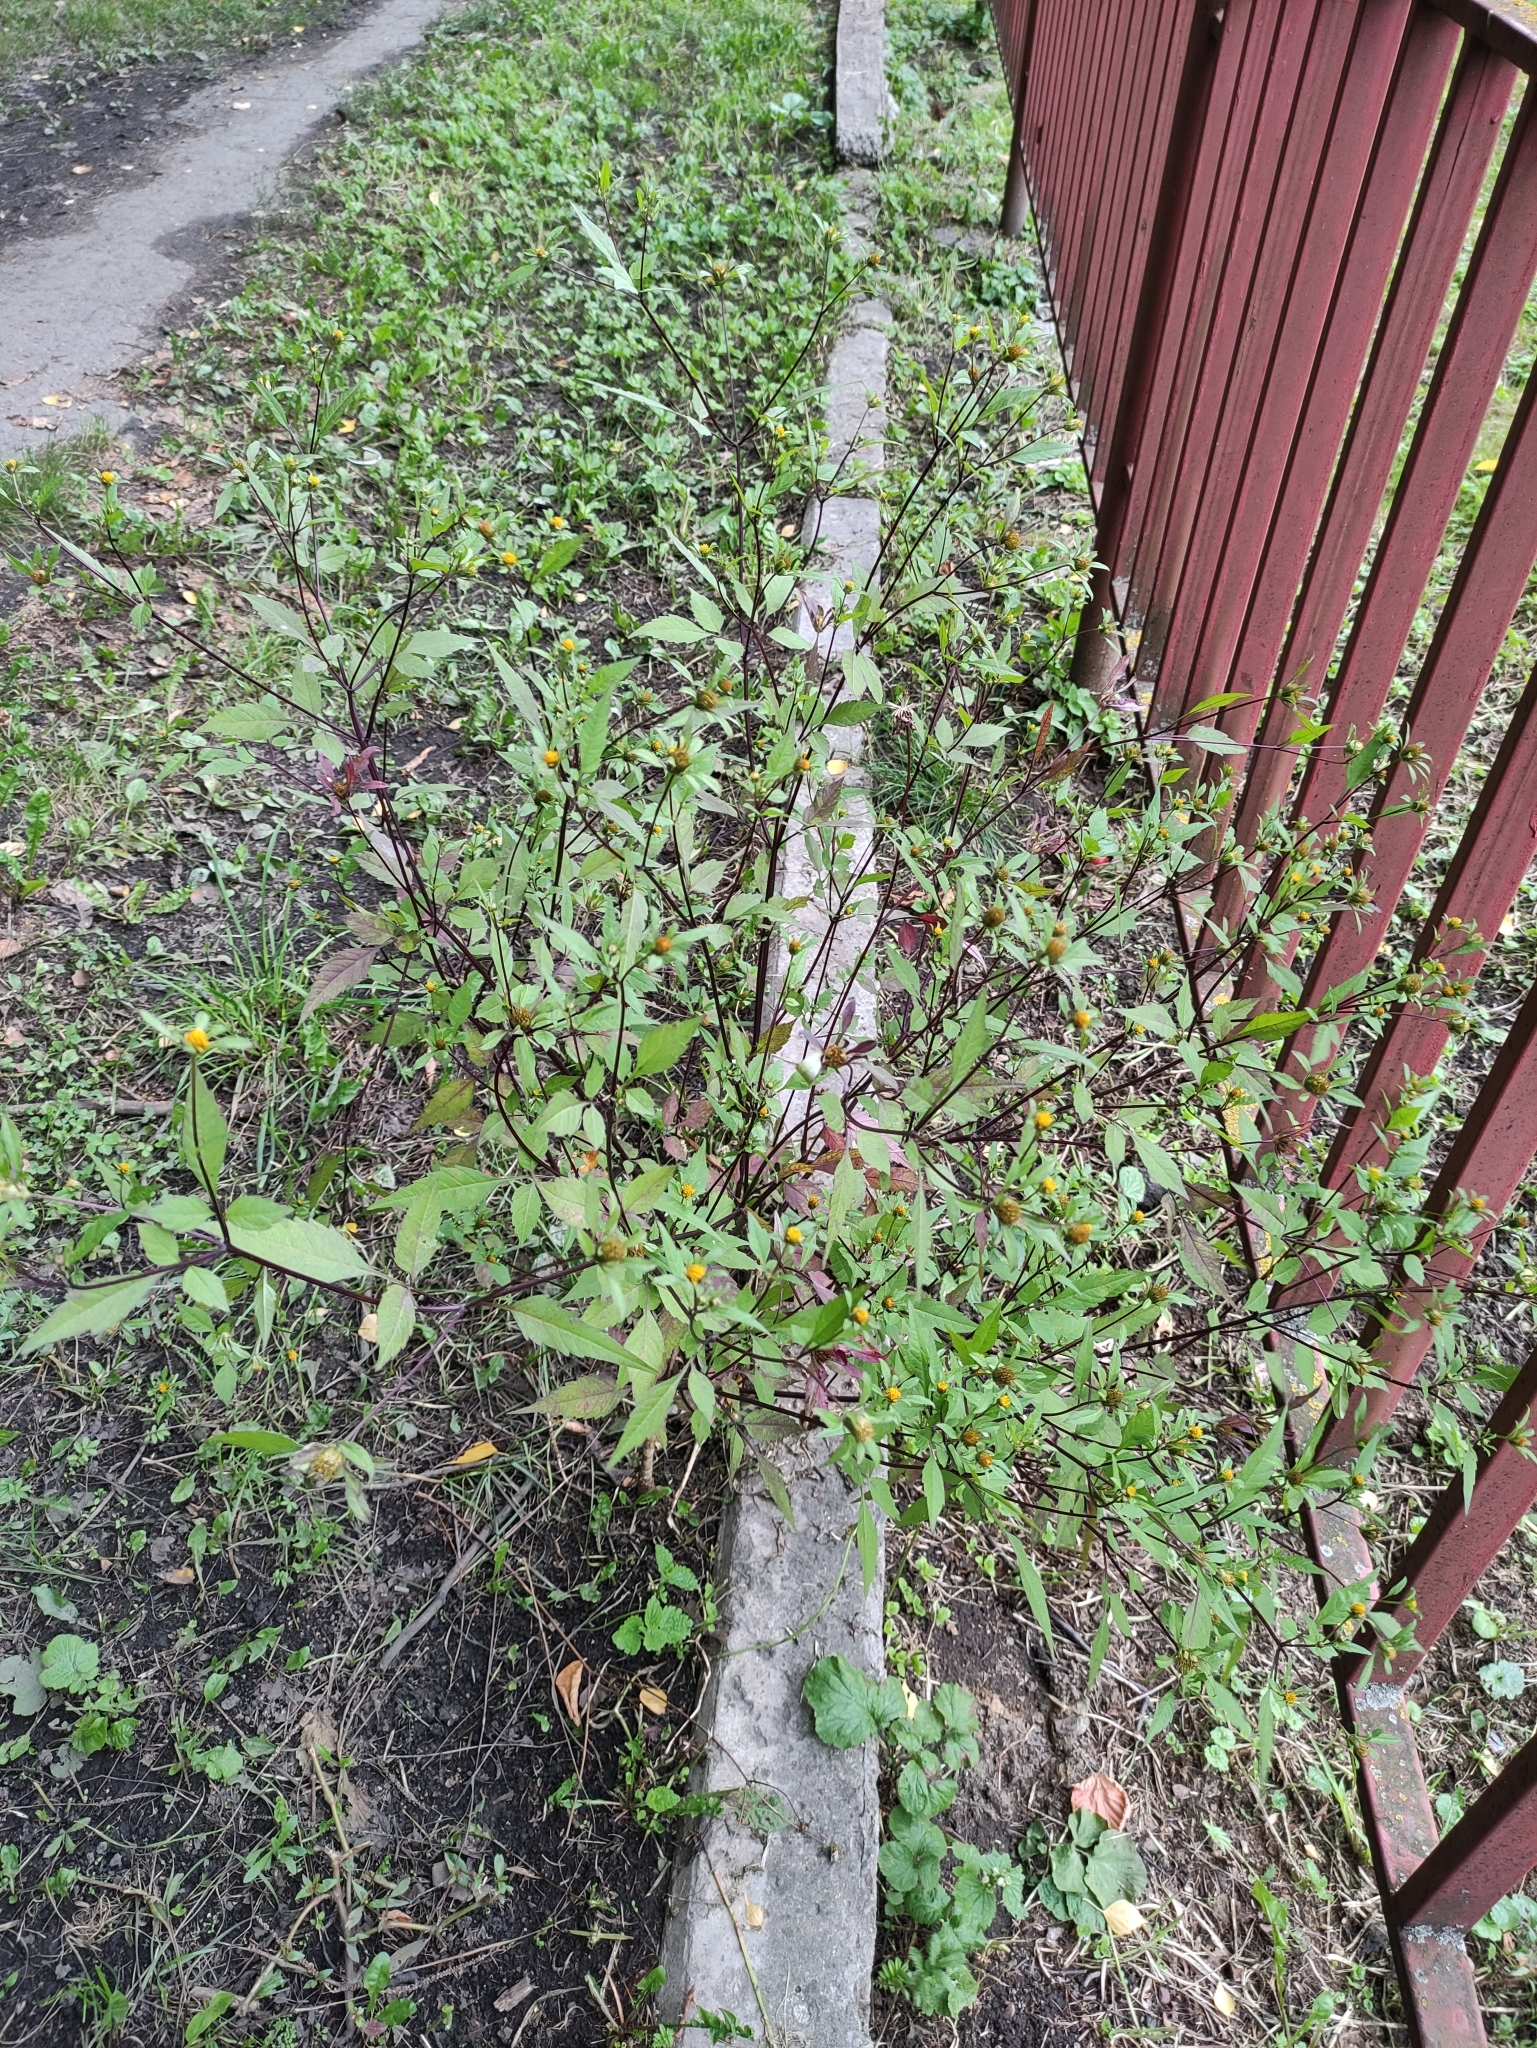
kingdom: Plantae
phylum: Tracheophyta
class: Magnoliopsida
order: Asterales
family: Asteraceae
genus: Bidens
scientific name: Bidens frondosa
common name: Beggarticks
